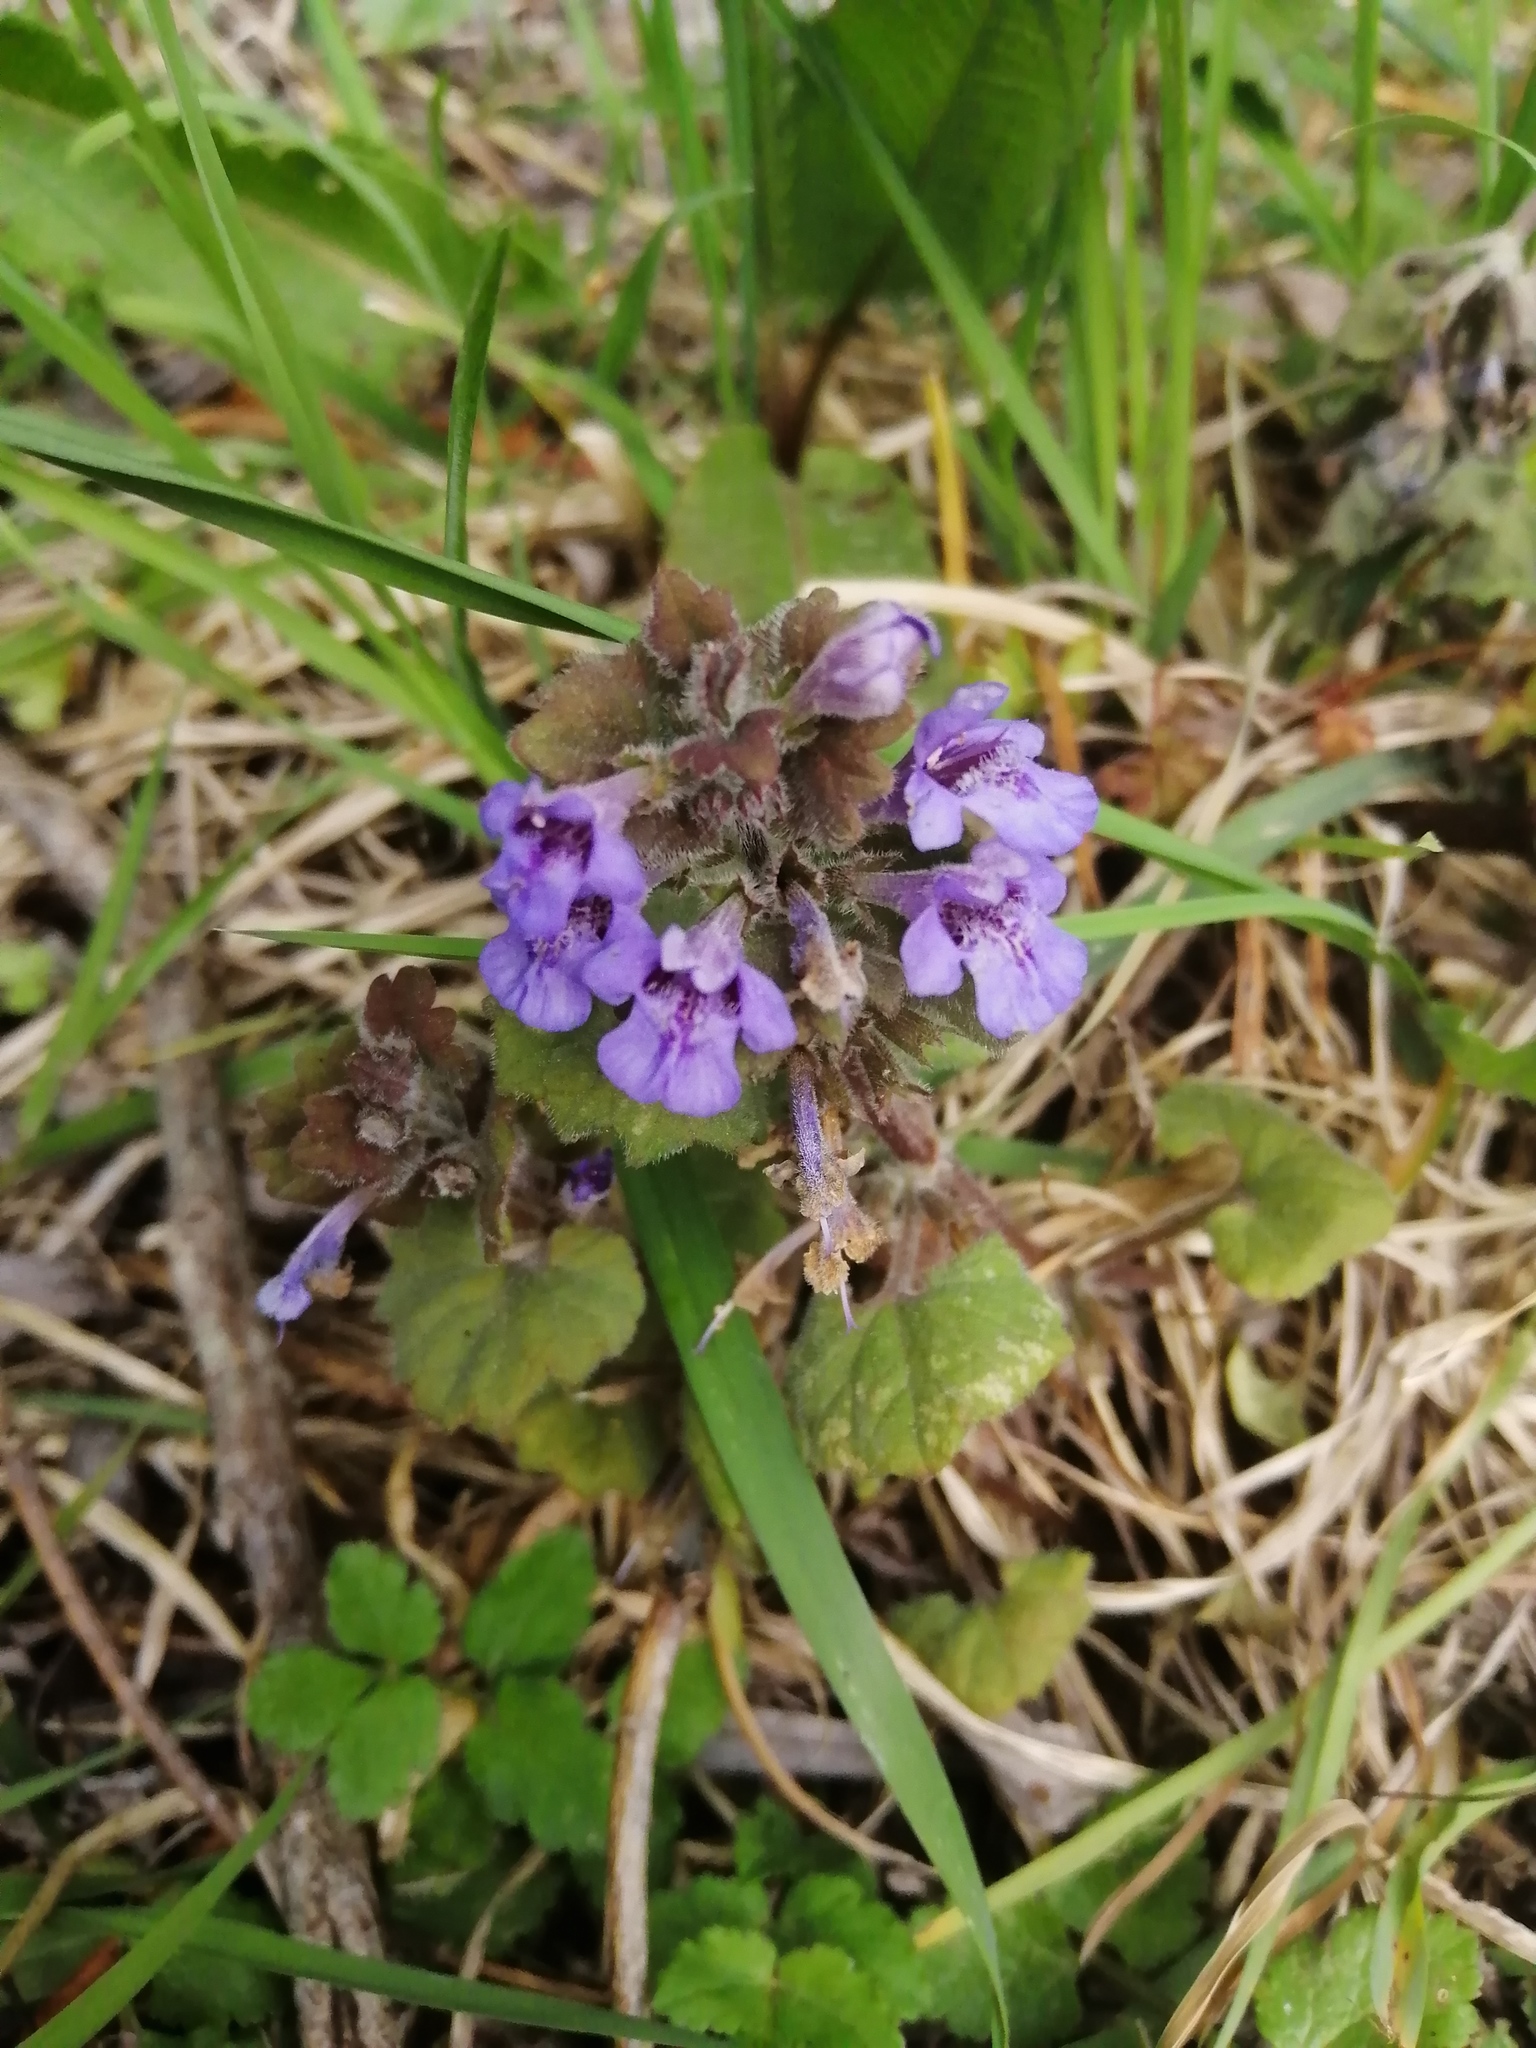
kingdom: Plantae
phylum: Tracheophyta
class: Magnoliopsida
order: Lamiales
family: Lamiaceae
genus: Glechoma
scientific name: Glechoma hederacea
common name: Ground ivy
